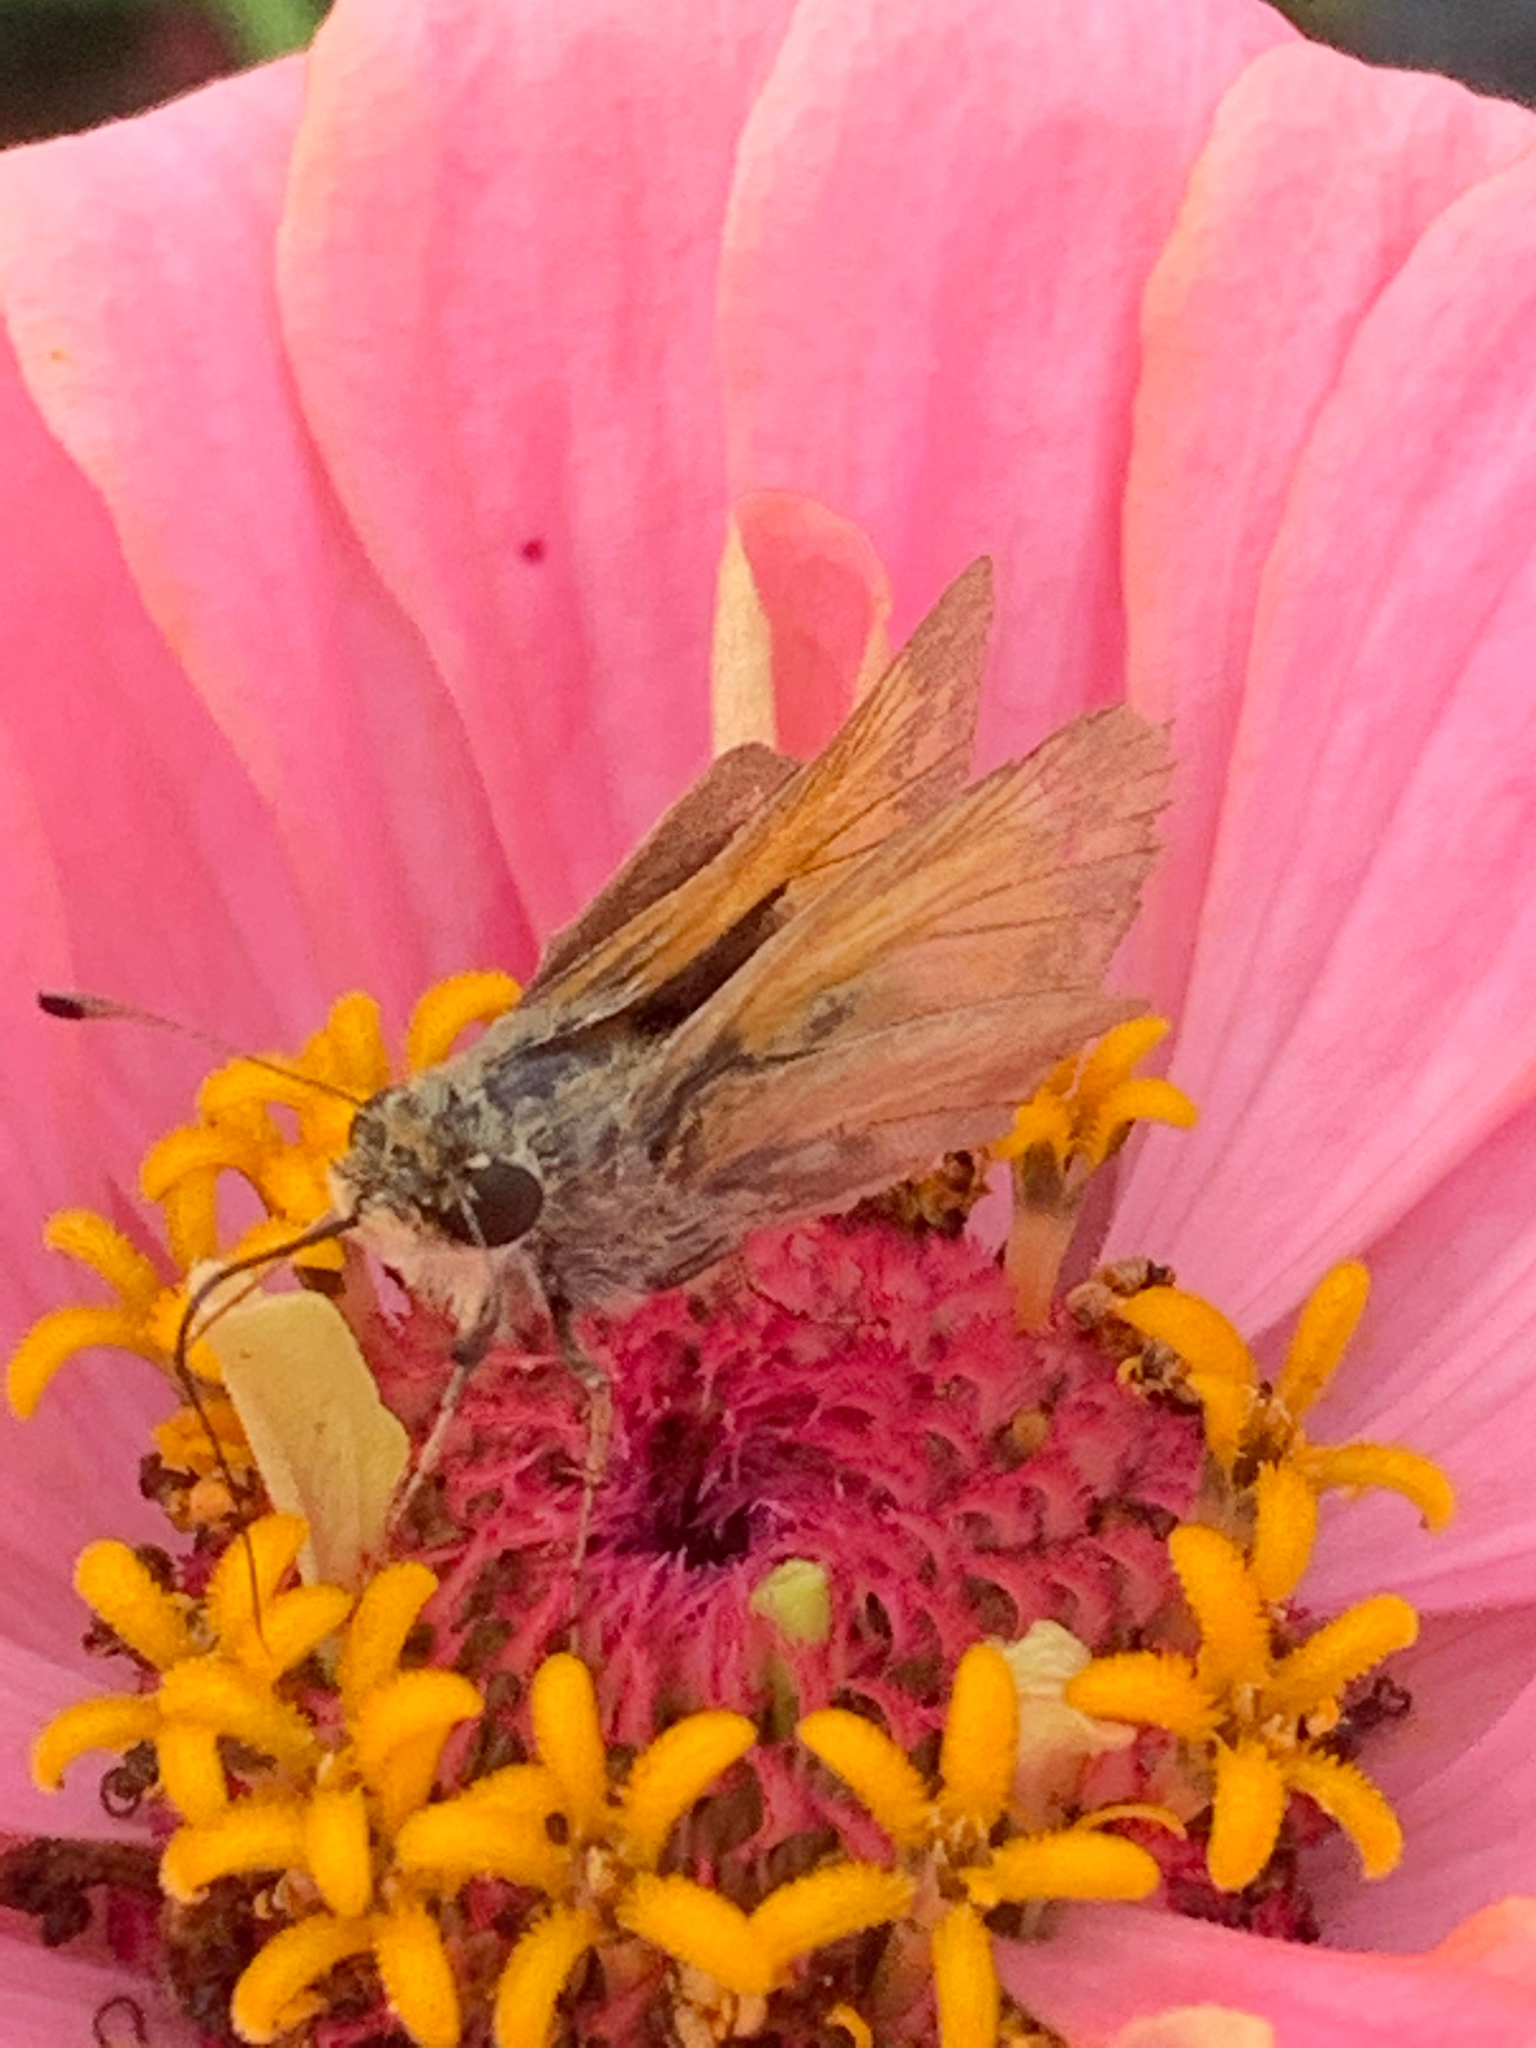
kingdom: Animalia
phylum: Arthropoda
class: Insecta
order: Lepidoptera
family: Hesperiidae
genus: Atalopedes
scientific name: Atalopedes
